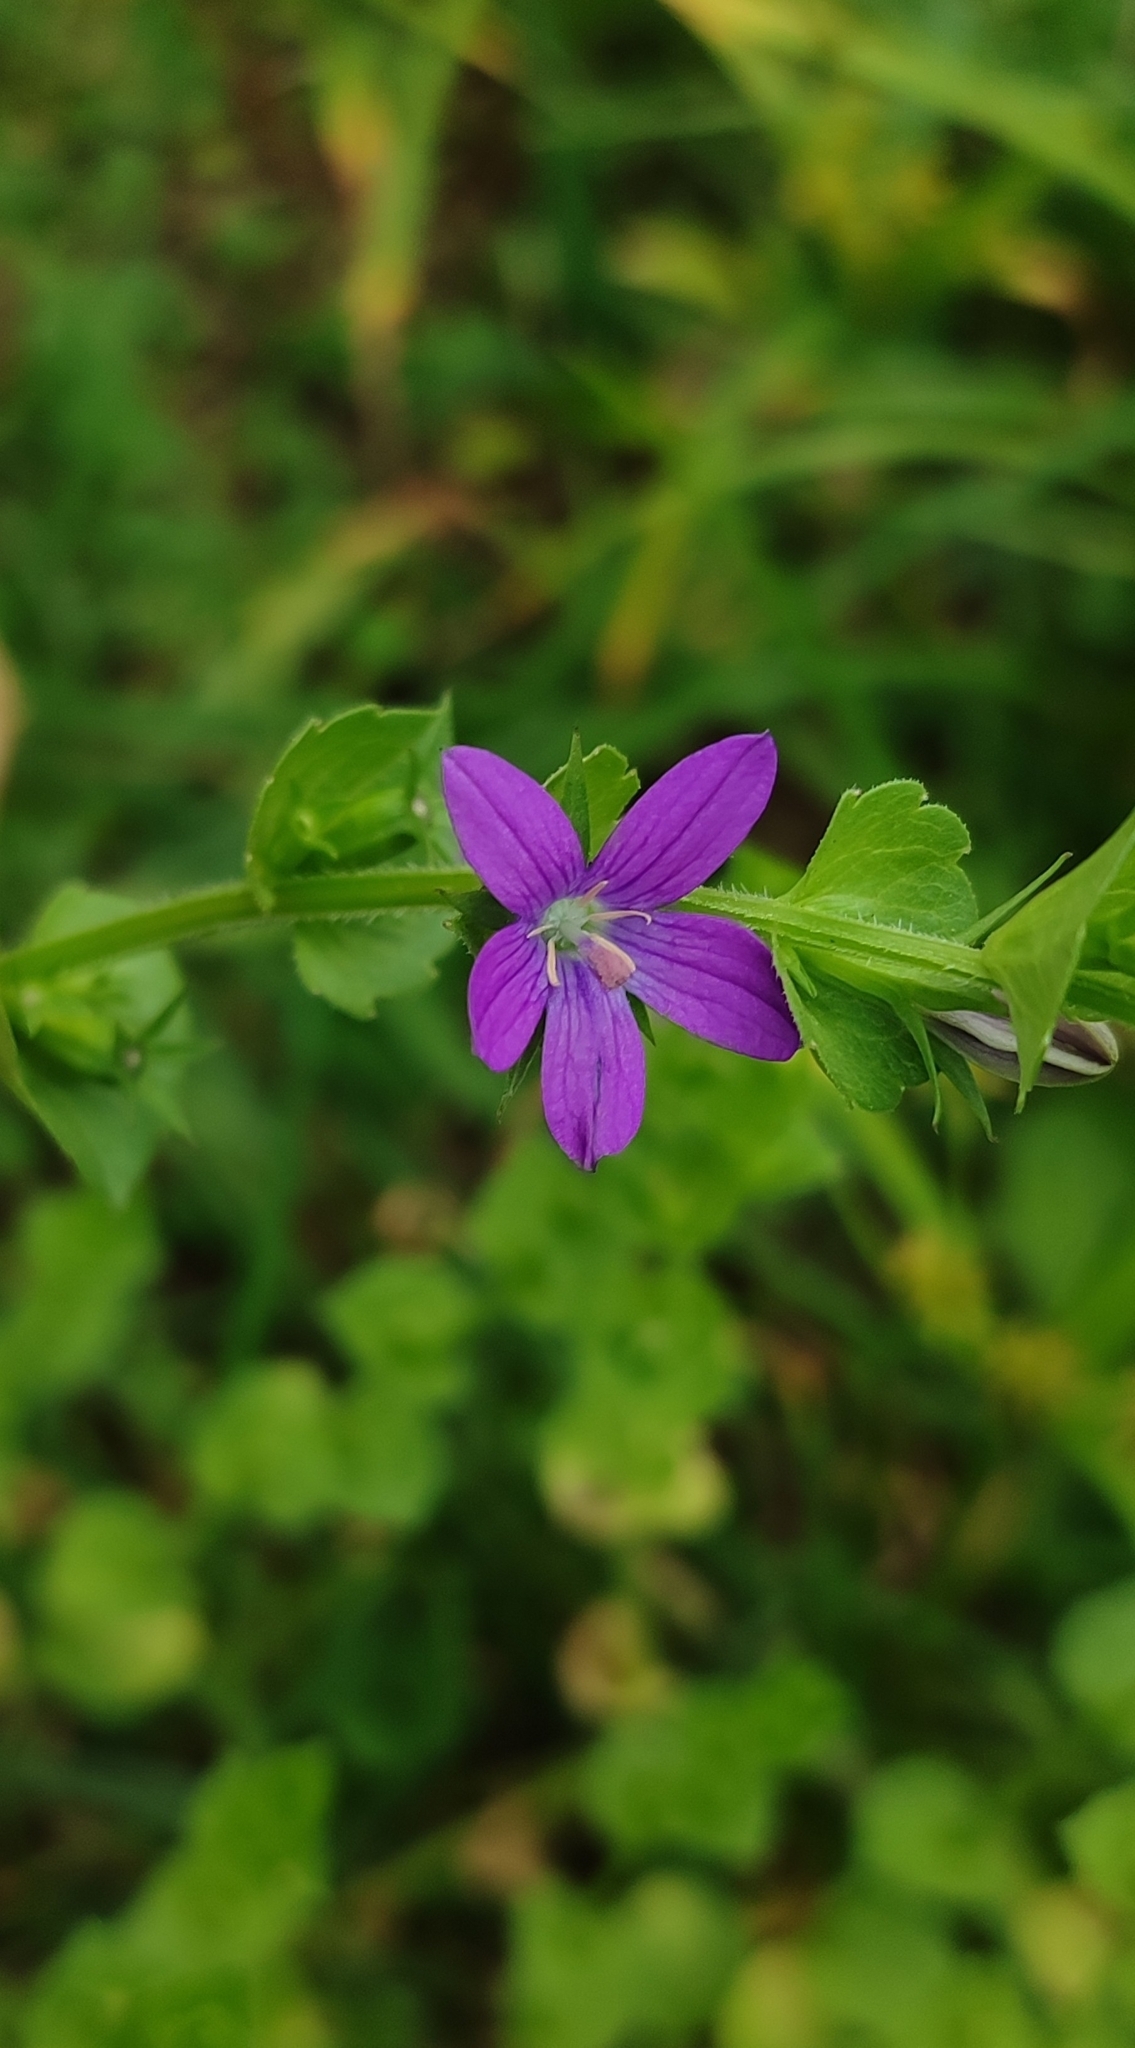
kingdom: Plantae
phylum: Tracheophyta
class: Magnoliopsida
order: Asterales
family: Campanulaceae
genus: Triodanis
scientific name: Triodanis perfoliata
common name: Clasping venus' looking-glass
